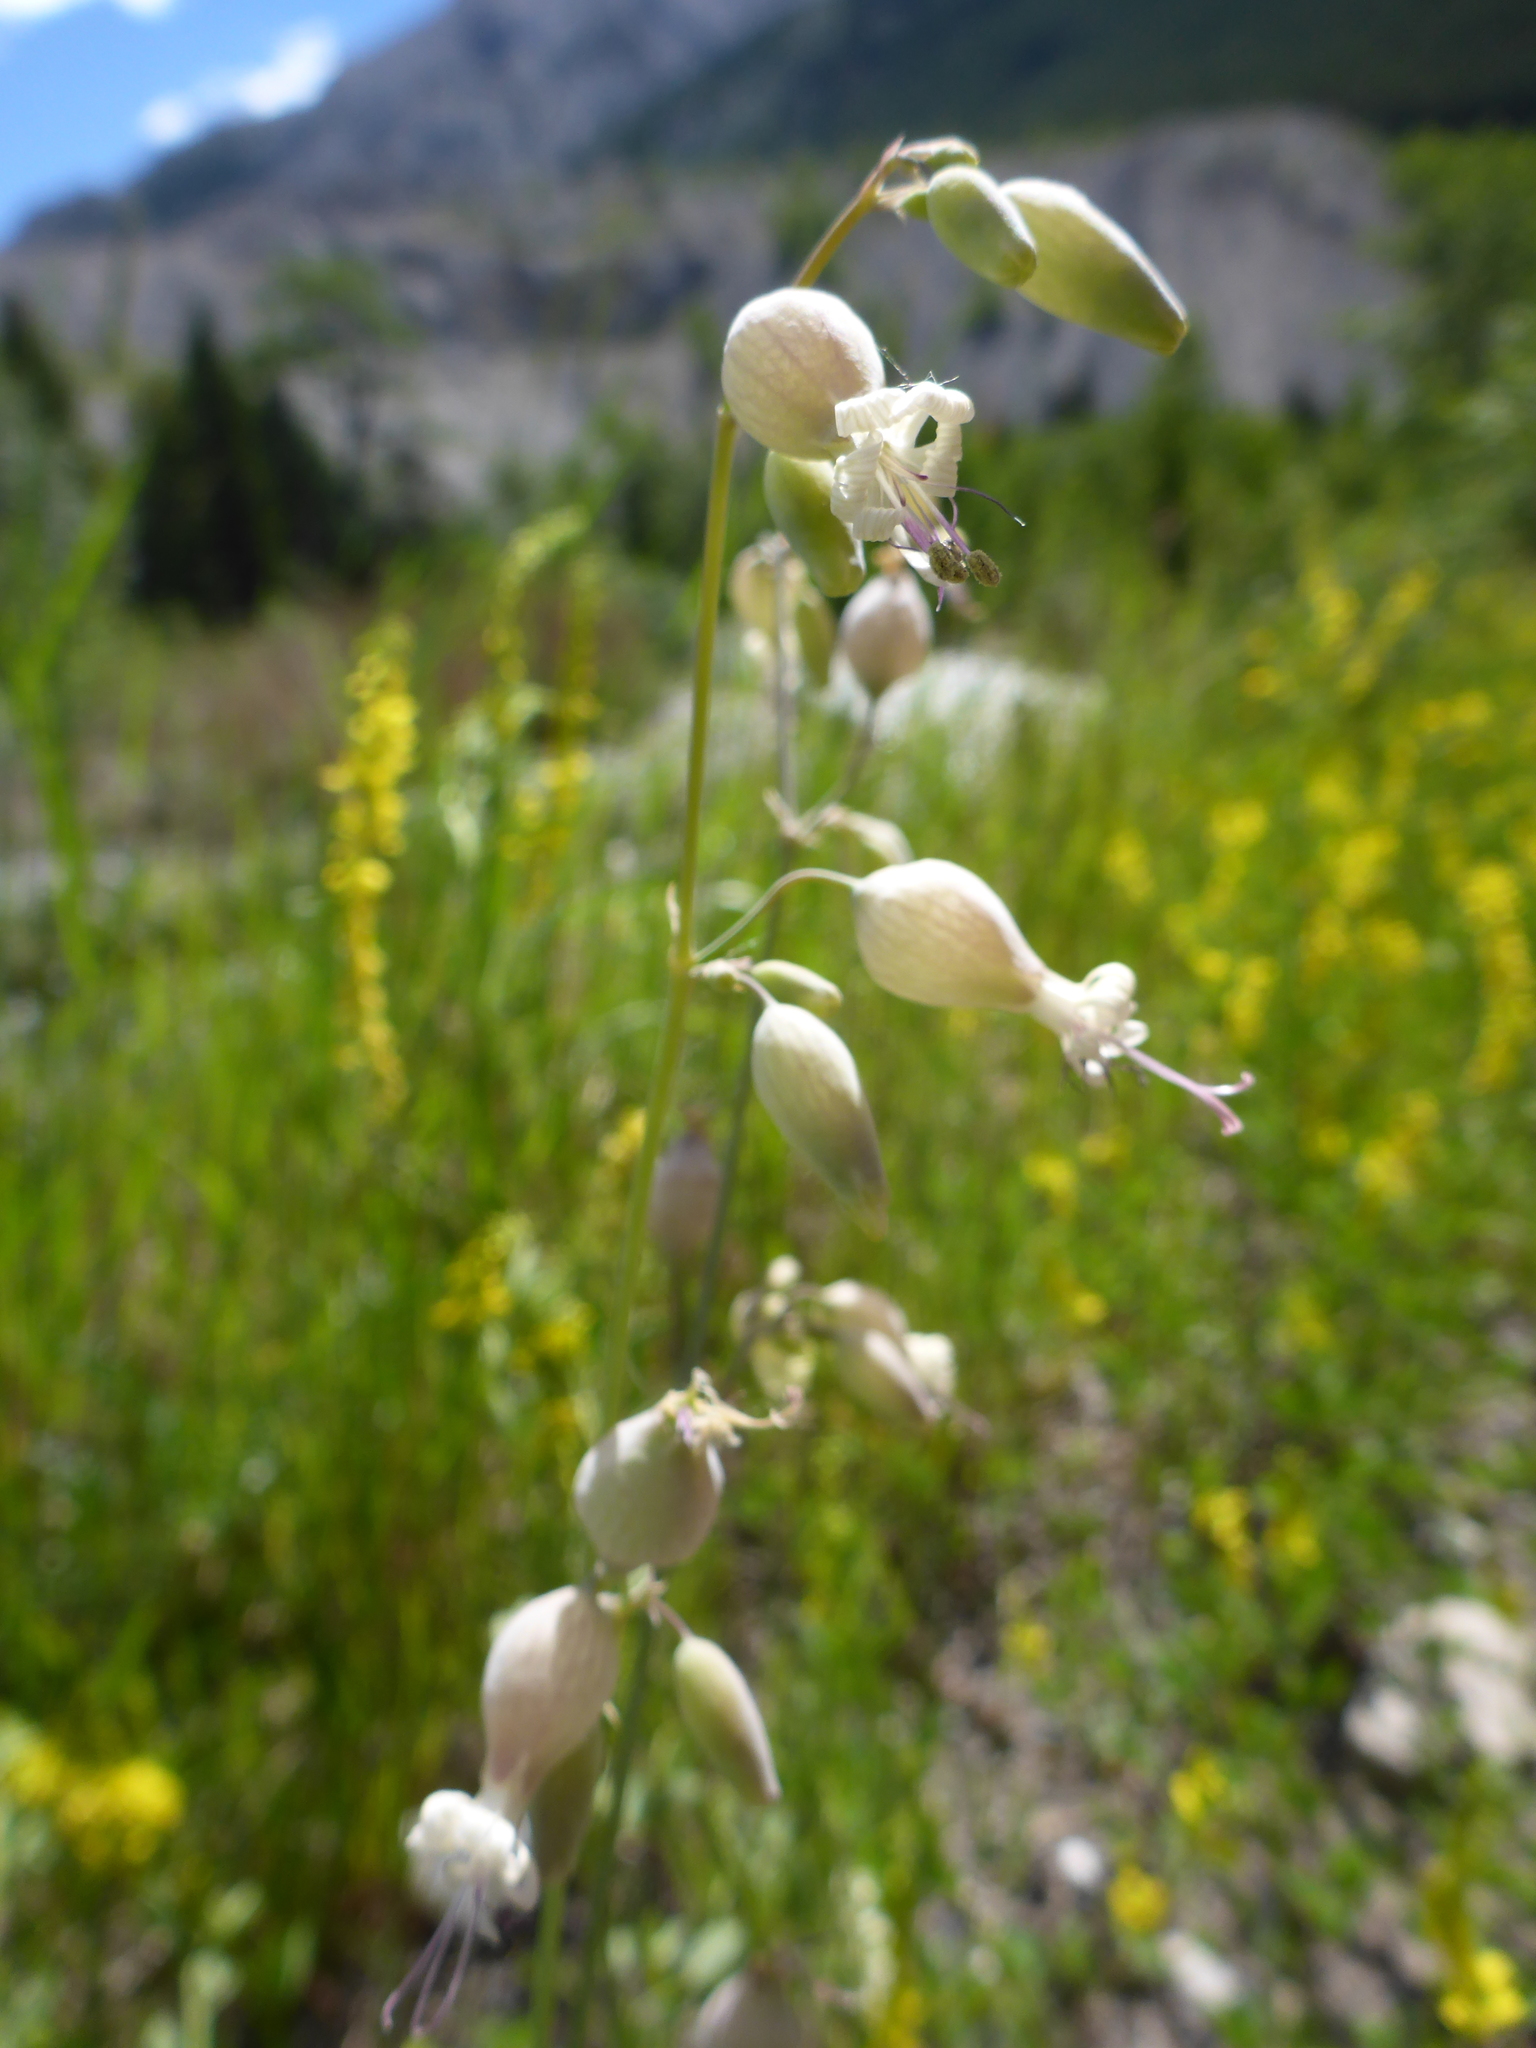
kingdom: Plantae
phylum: Tracheophyta
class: Magnoliopsida
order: Caryophyllales
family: Caryophyllaceae
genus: Silene
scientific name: Silene csereii
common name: Balkan catchfly
